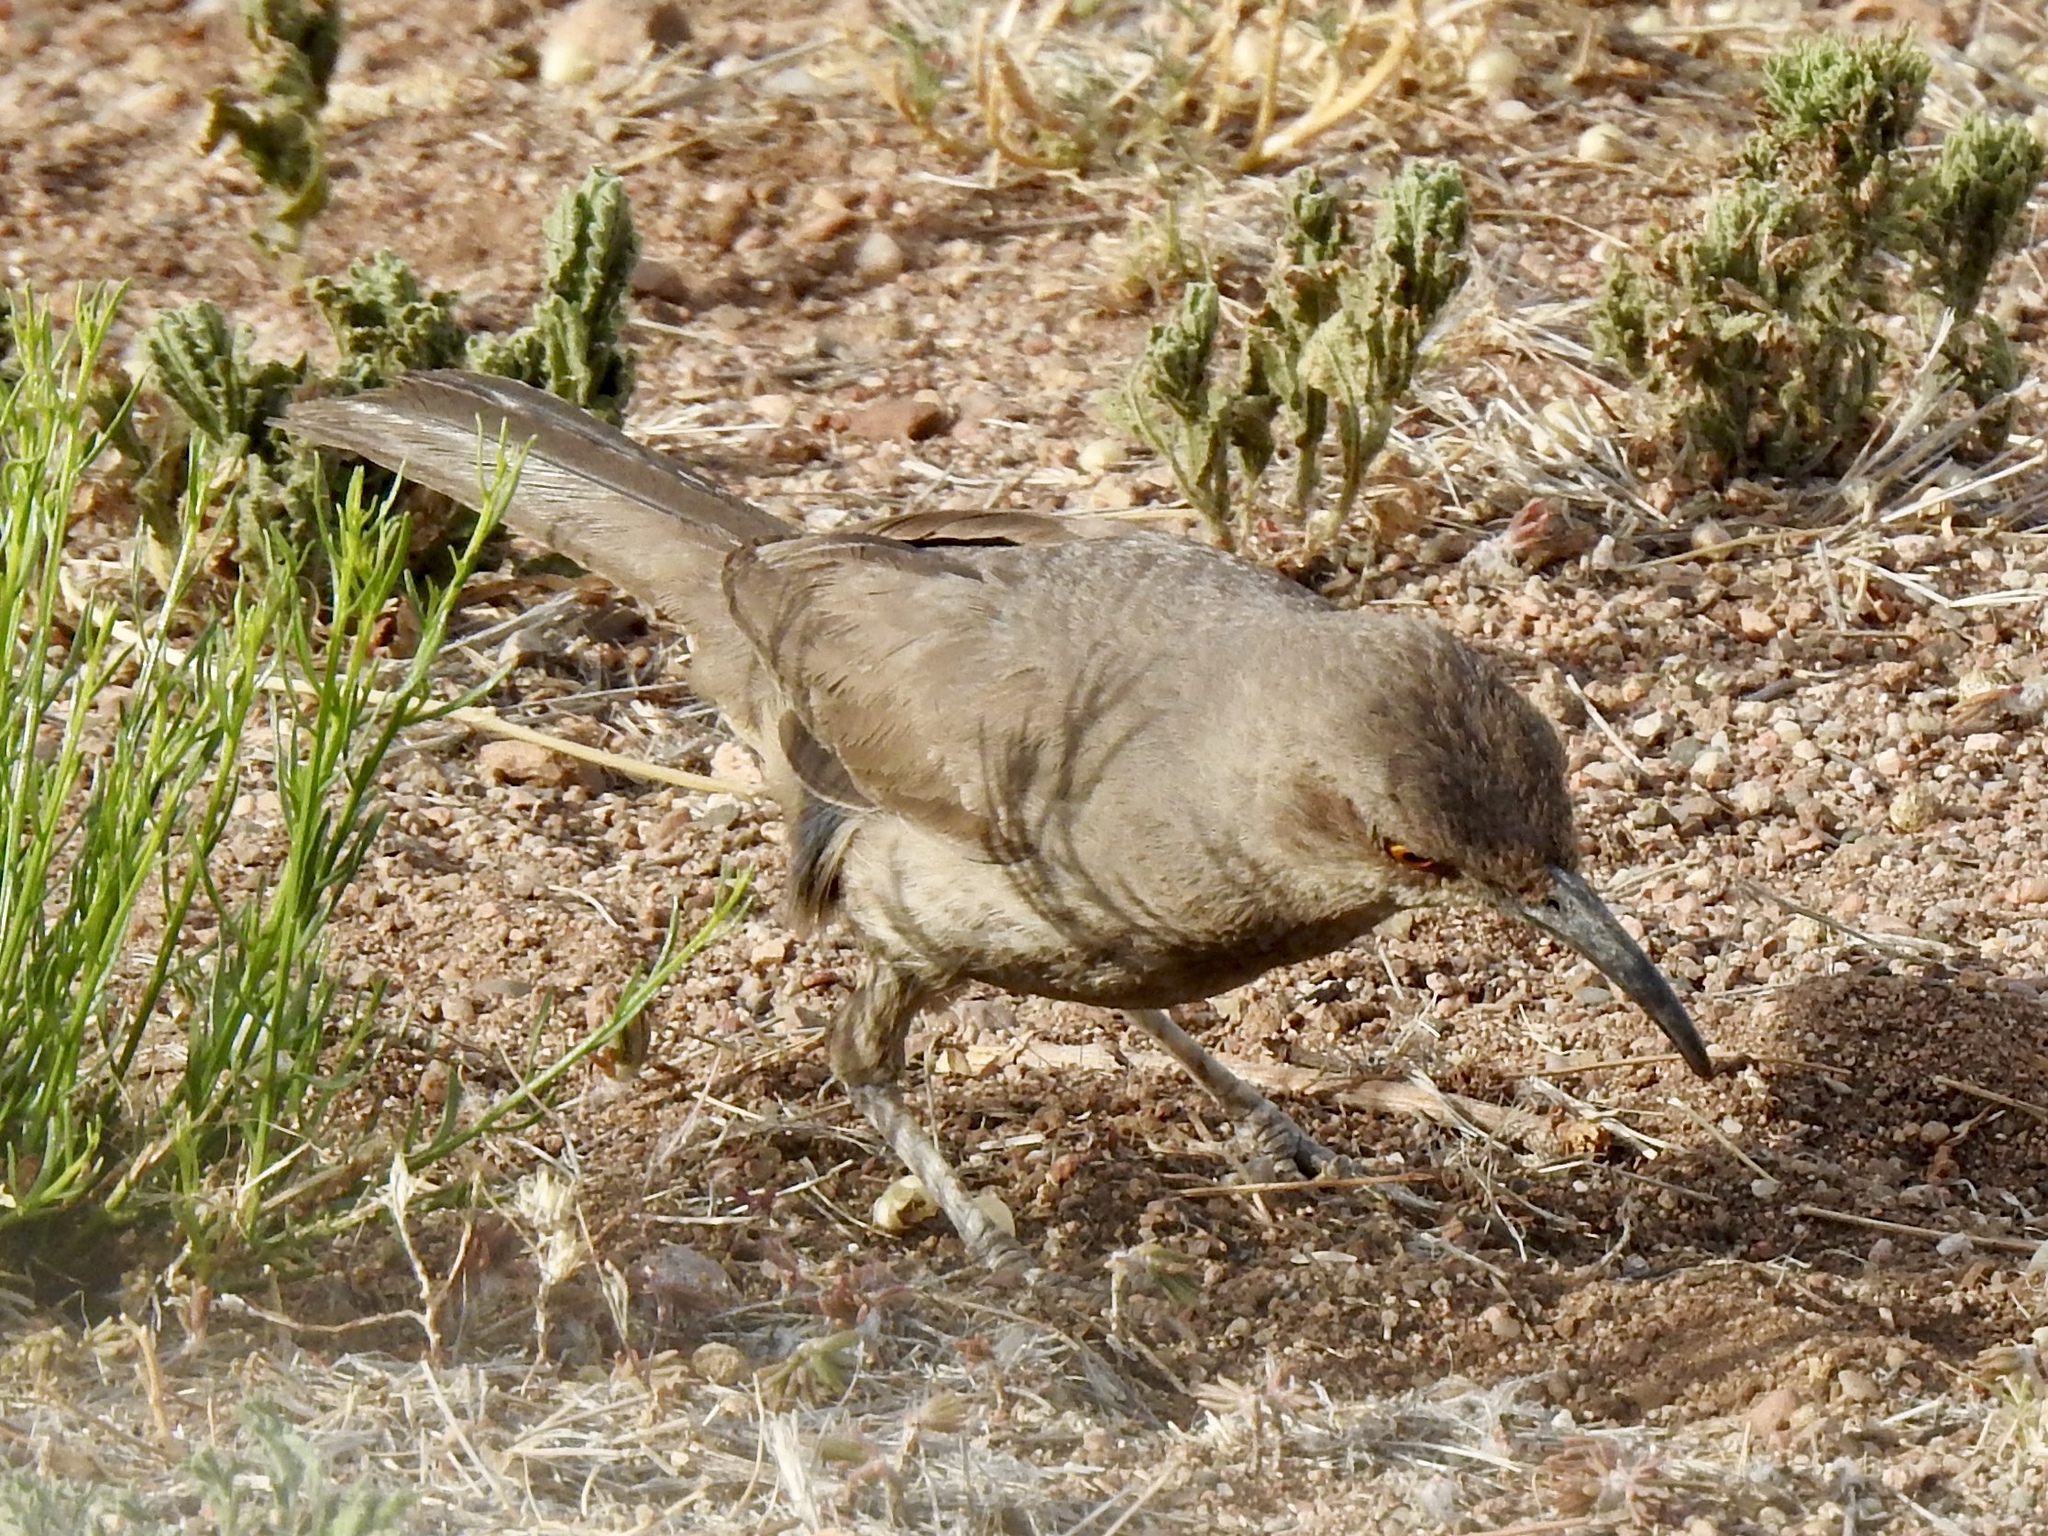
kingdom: Animalia
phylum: Chordata
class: Aves
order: Passeriformes
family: Mimidae
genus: Toxostoma
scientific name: Toxostoma curvirostre
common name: Curve-billed thrasher
